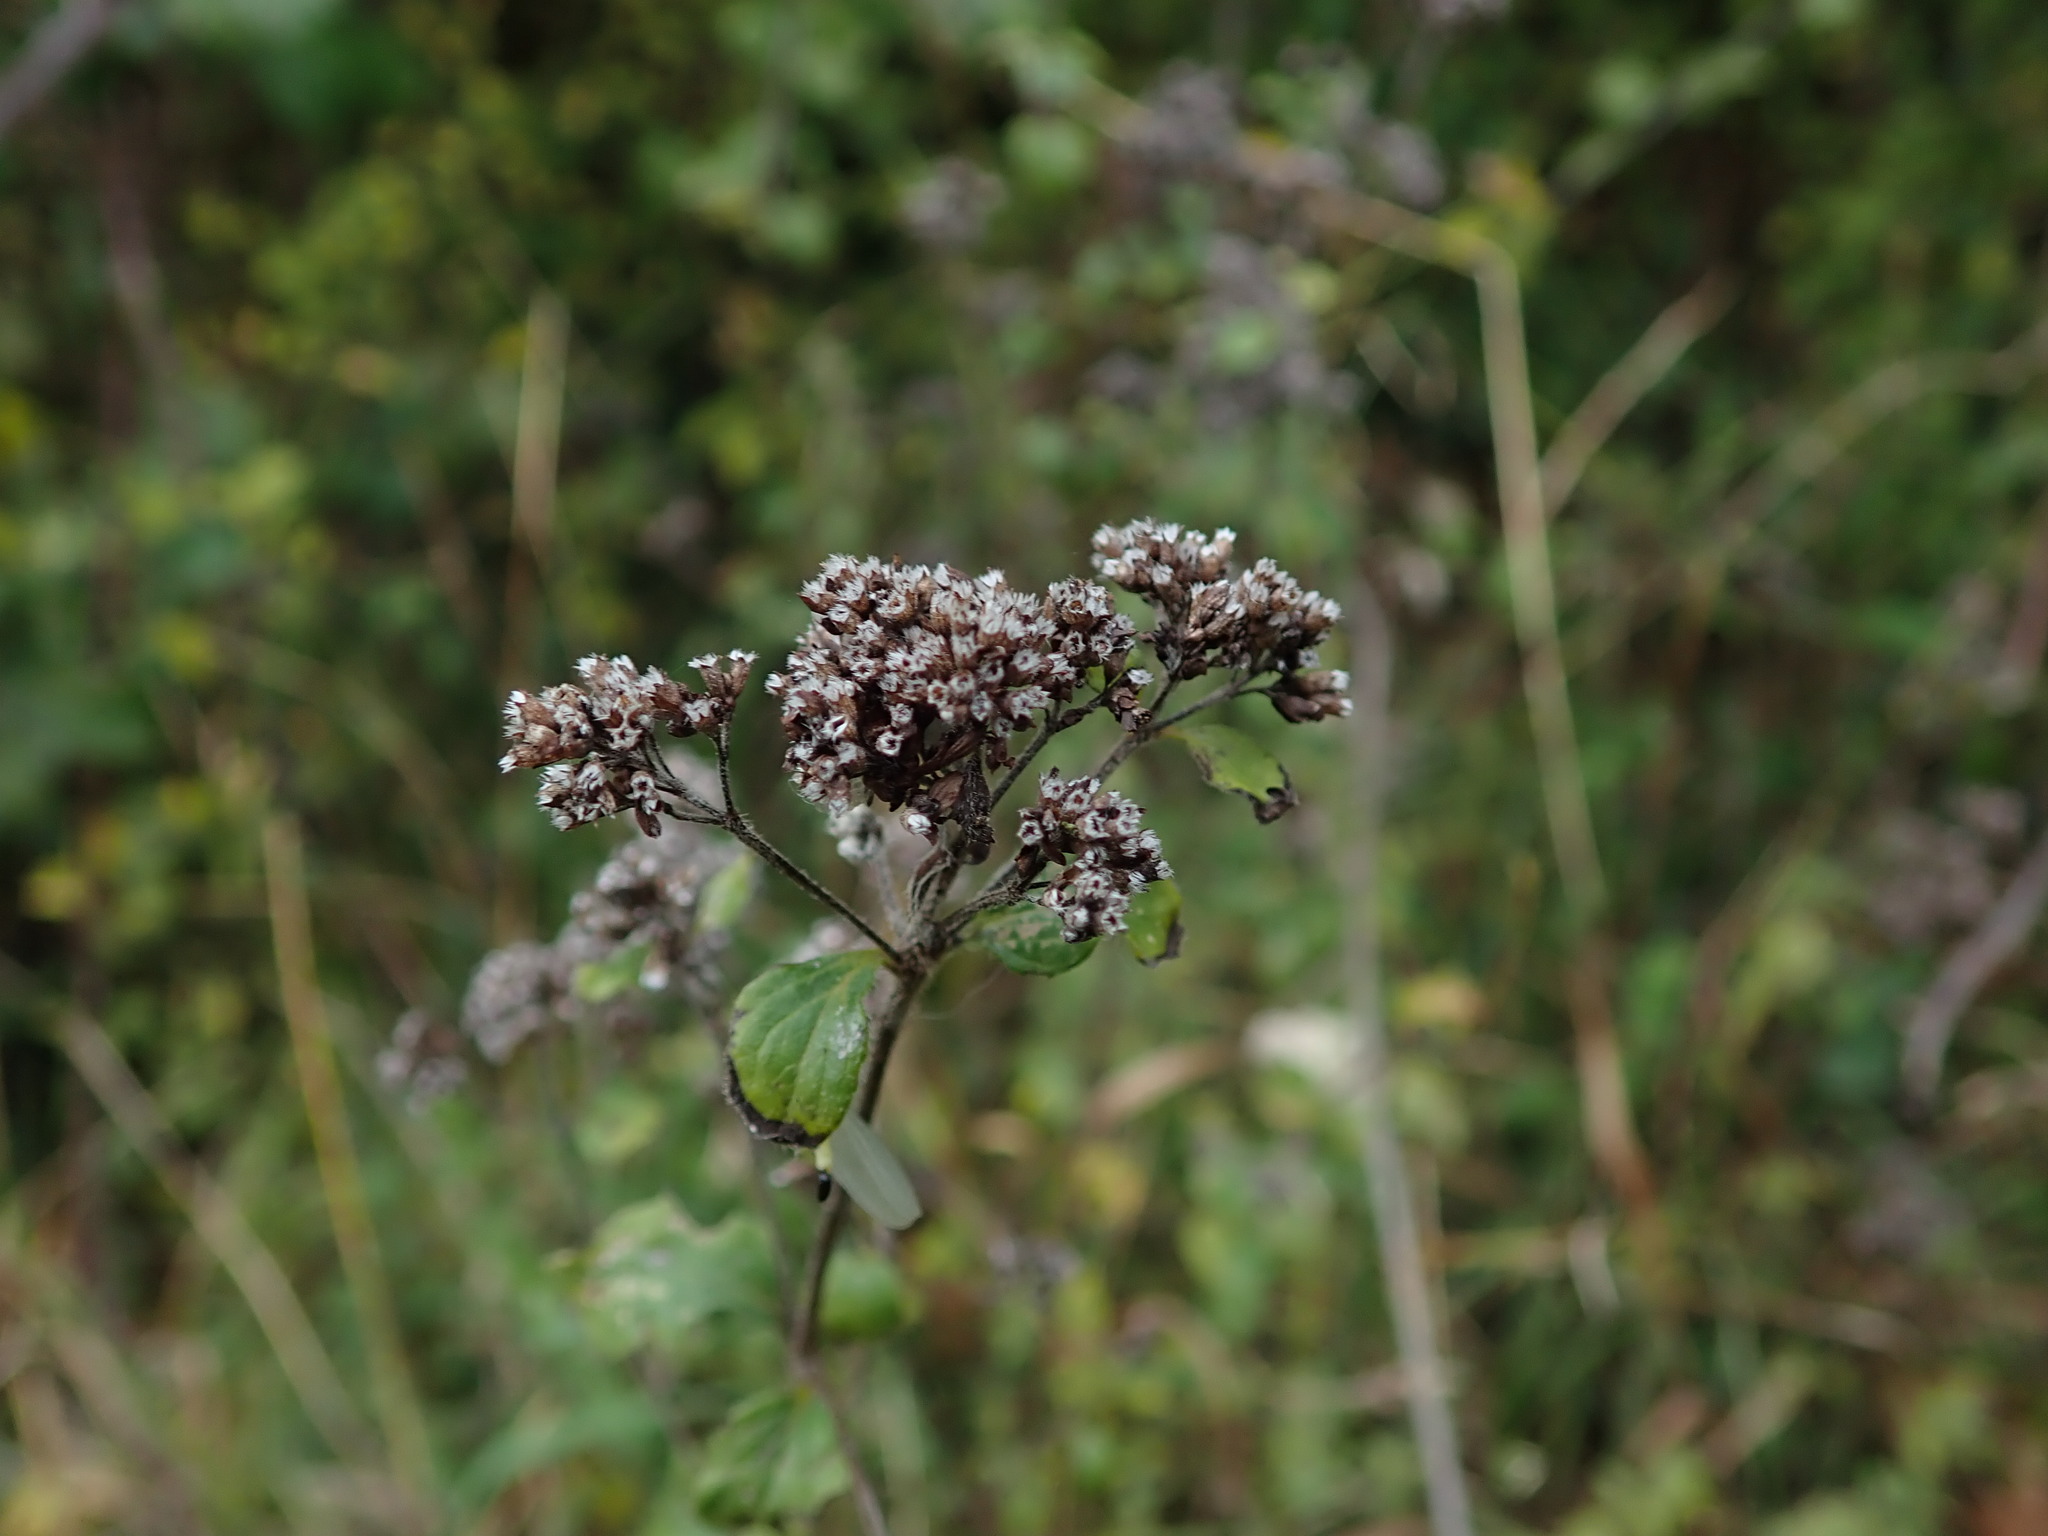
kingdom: Plantae
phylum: Tracheophyta
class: Magnoliopsida
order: Lamiales
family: Lamiaceae
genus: Origanum
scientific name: Origanum vulgare
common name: Wild marjoram
